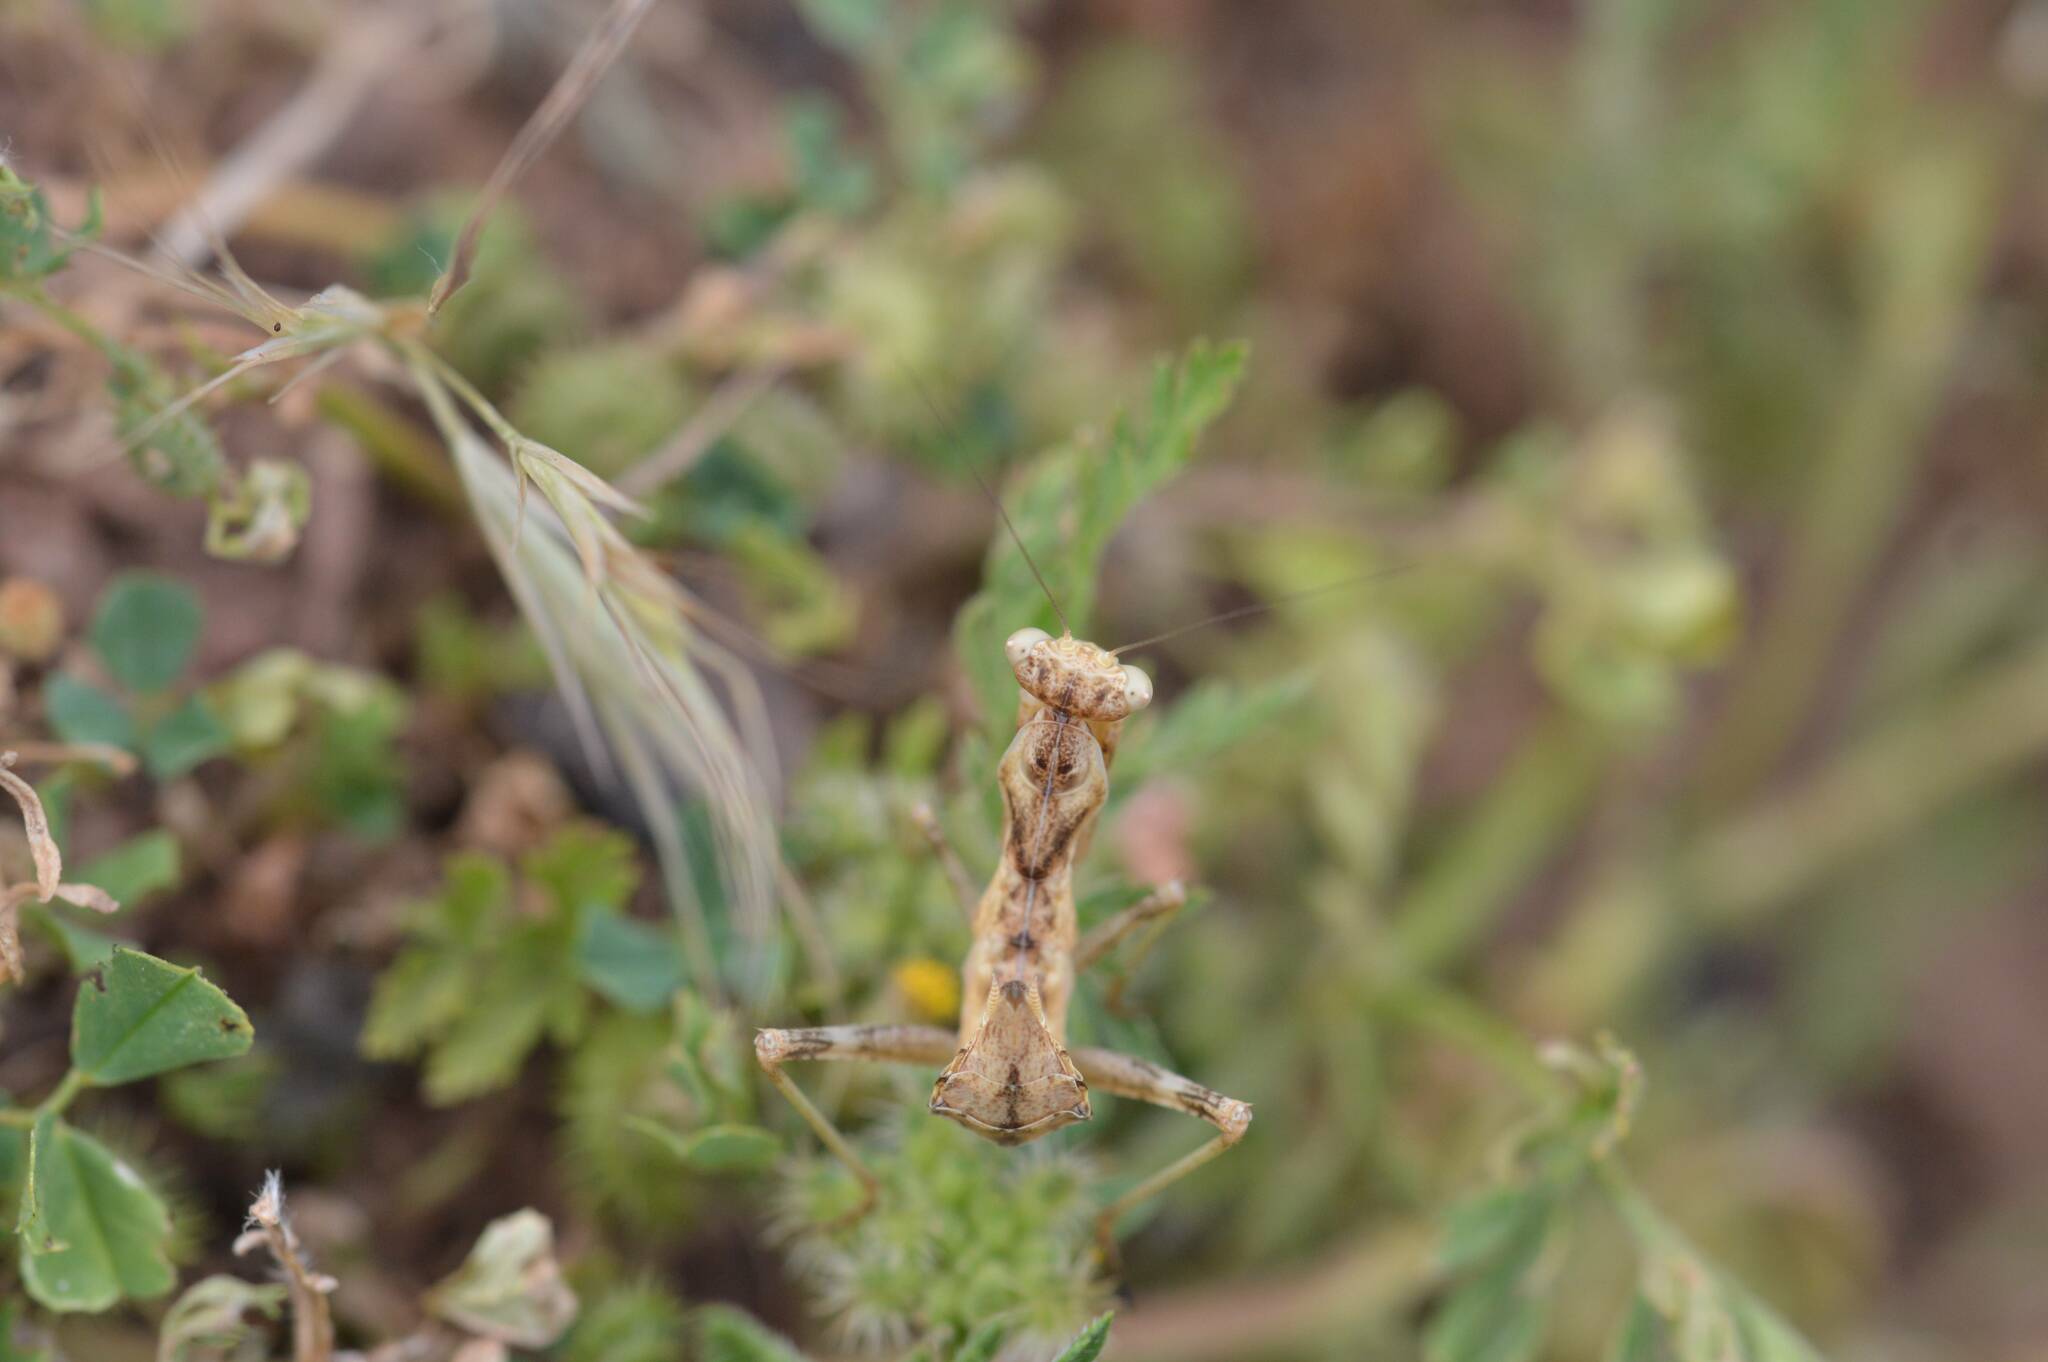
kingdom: Animalia
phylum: Arthropoda
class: Insecta
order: Mantodea
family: Amelidae
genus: Ameles
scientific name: Ameles spallanzania
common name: European dwarf mantis
